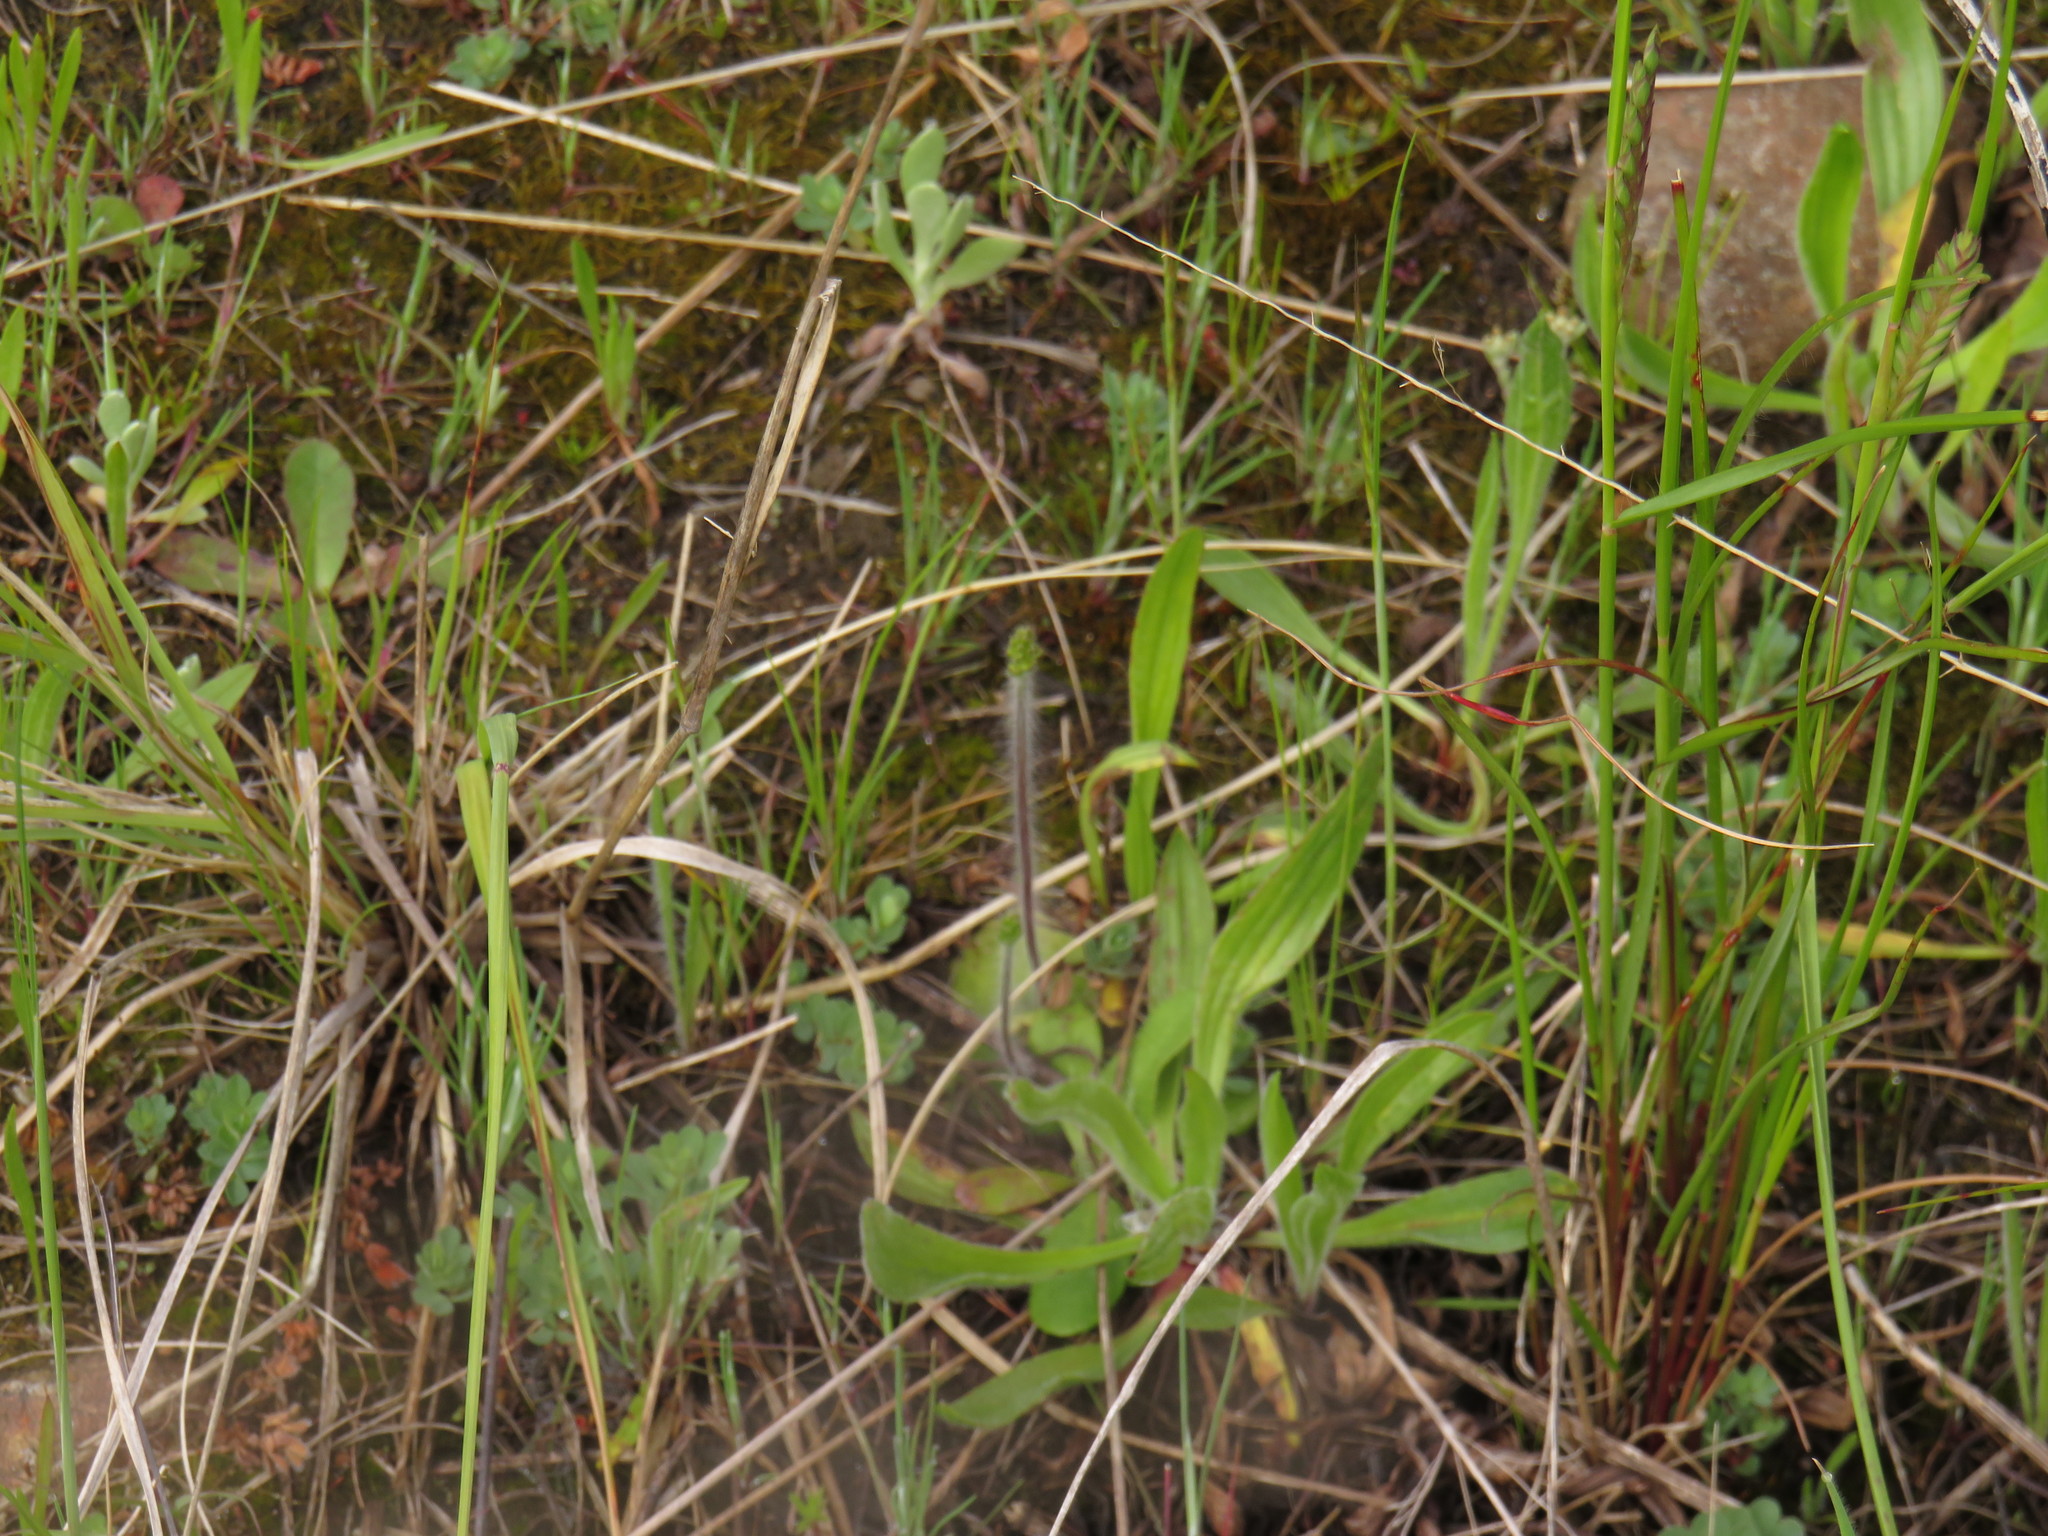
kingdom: Plantae
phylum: Tracheophyta
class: Liliopsida
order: Asparagales
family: Orchidaceae
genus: Holothrix
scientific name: Holothrix villosa
